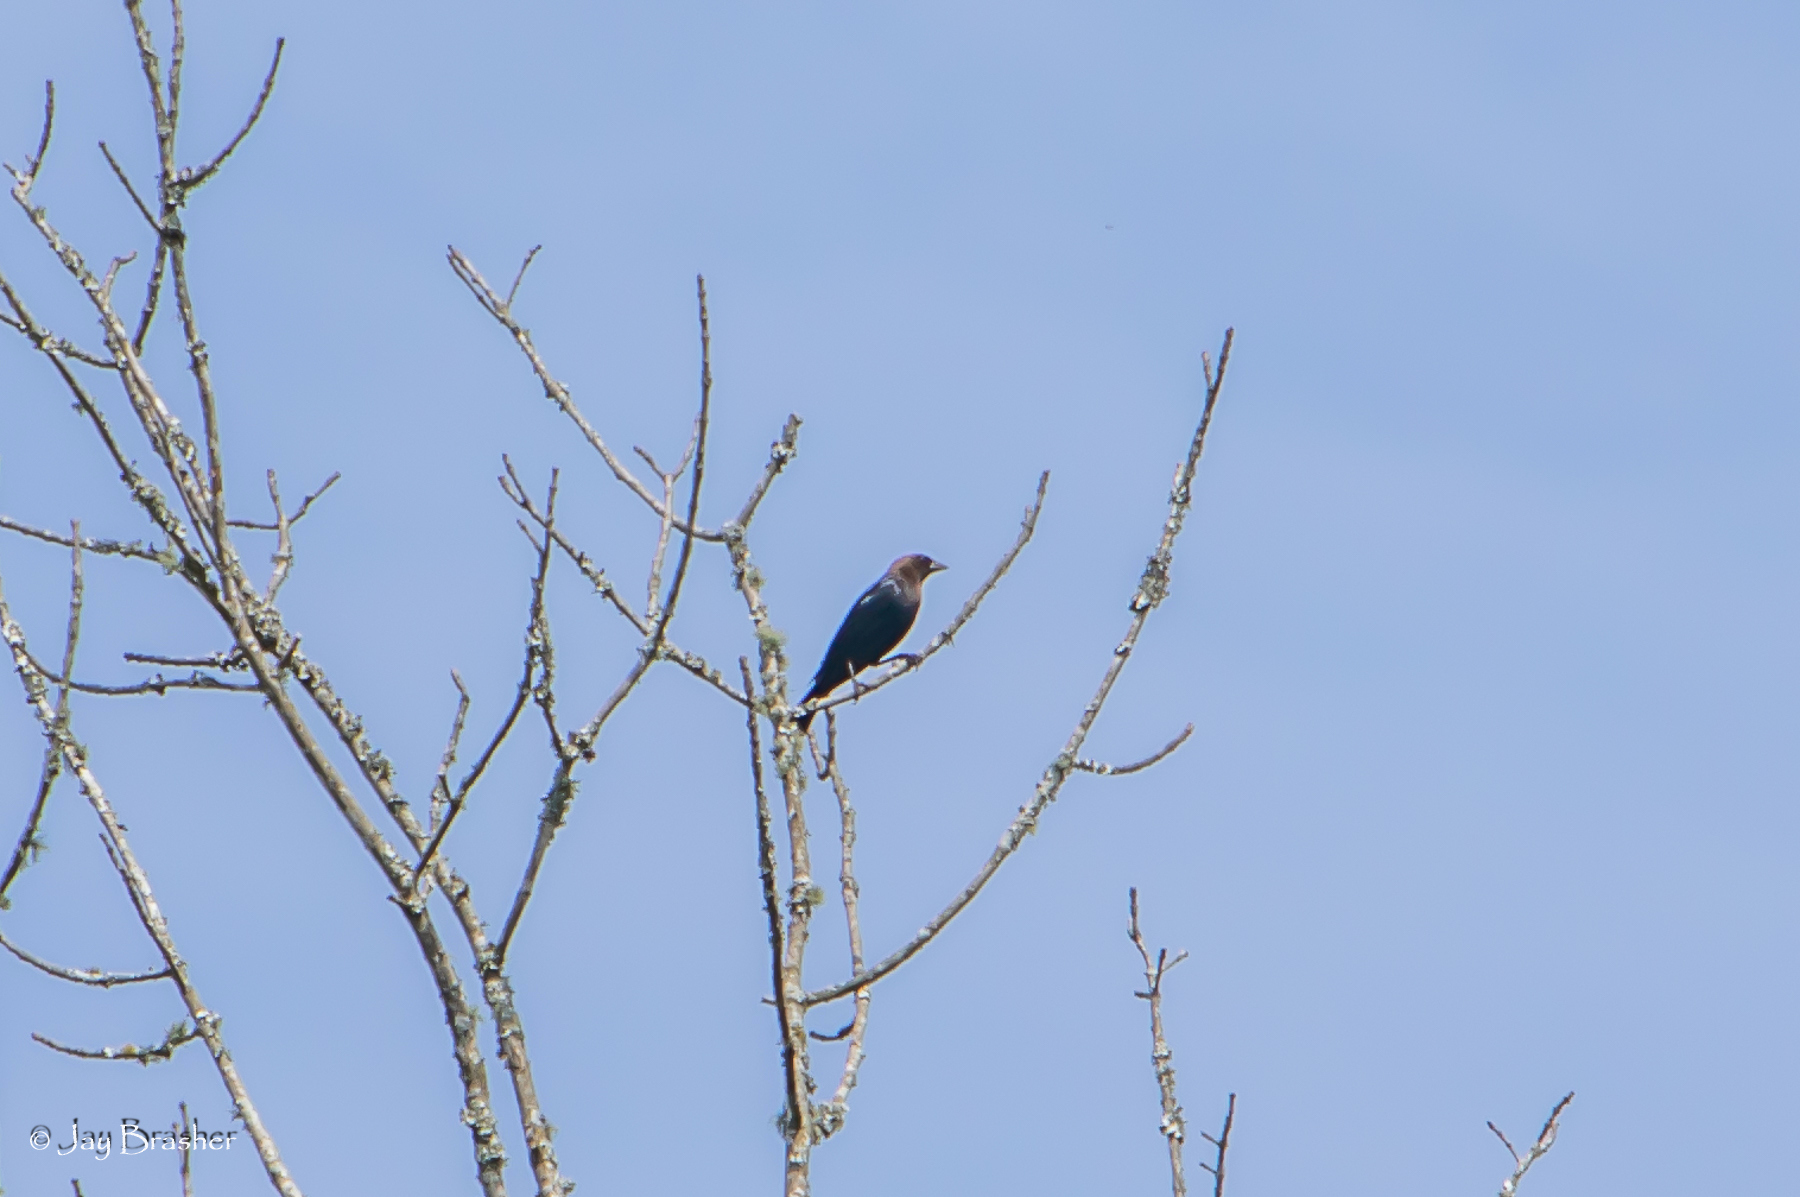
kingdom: Animalia
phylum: Chordata
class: Aves
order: Passeriformes
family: Icteridae
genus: Molothrus
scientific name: Molothrus ater
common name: Brown-headed cowbird
